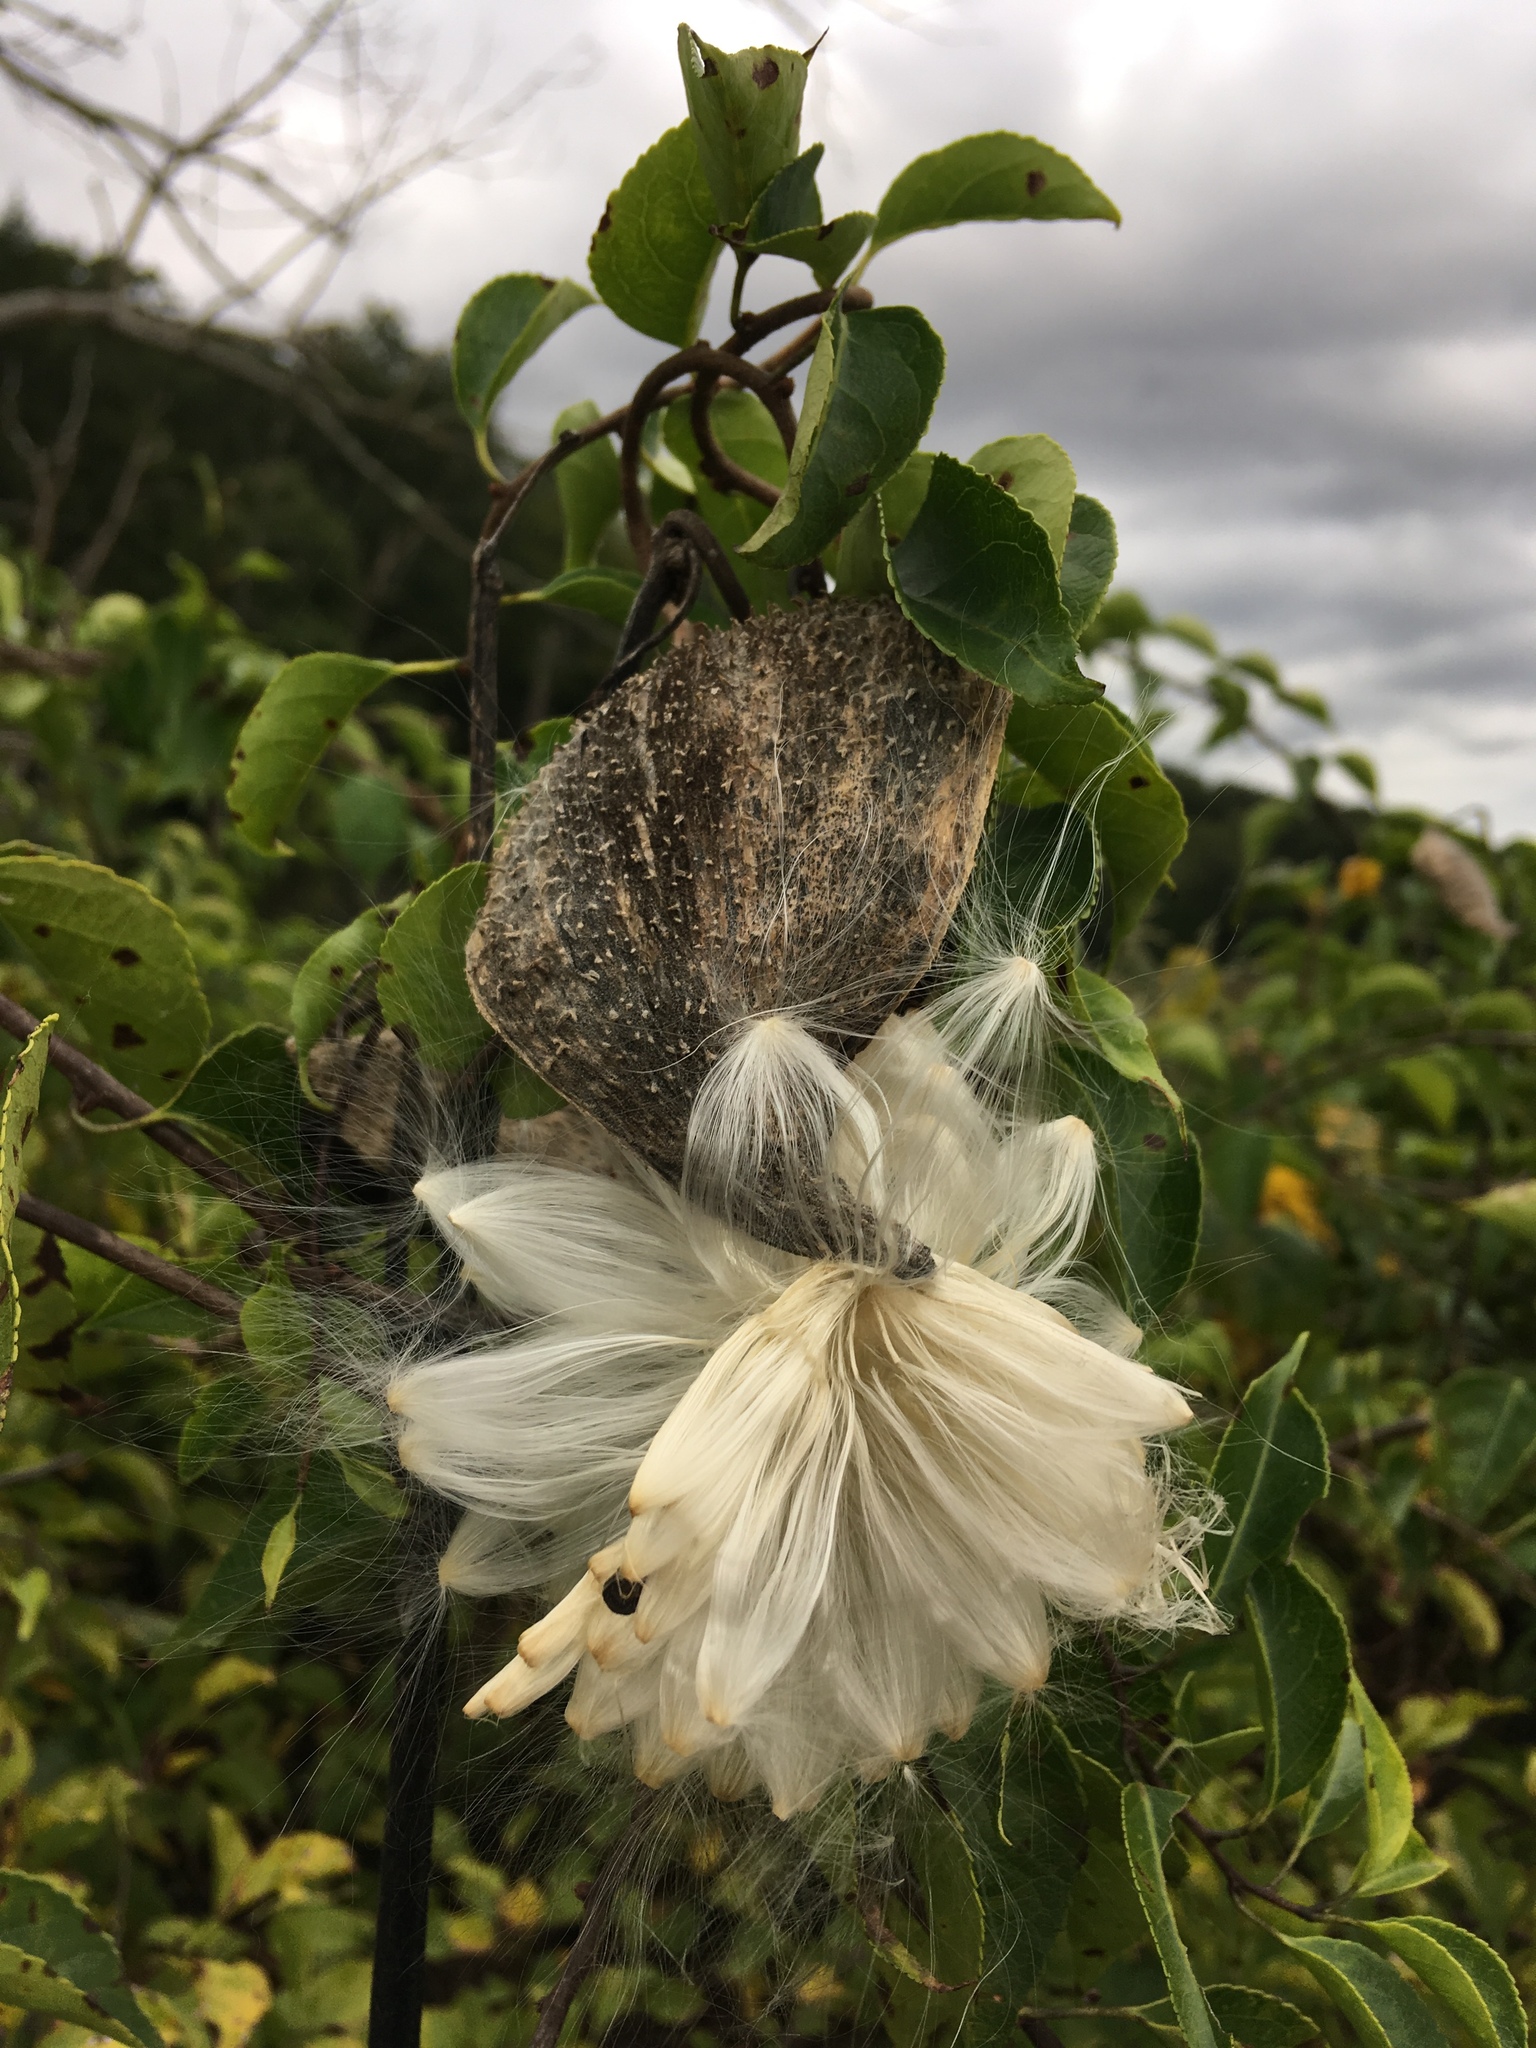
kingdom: Plantae
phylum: Tracheophyta
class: Magnoliopsida
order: Gentianales
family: Apocynaceae
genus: Asclepias
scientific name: Asclepias syriaca
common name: Common milkweed
